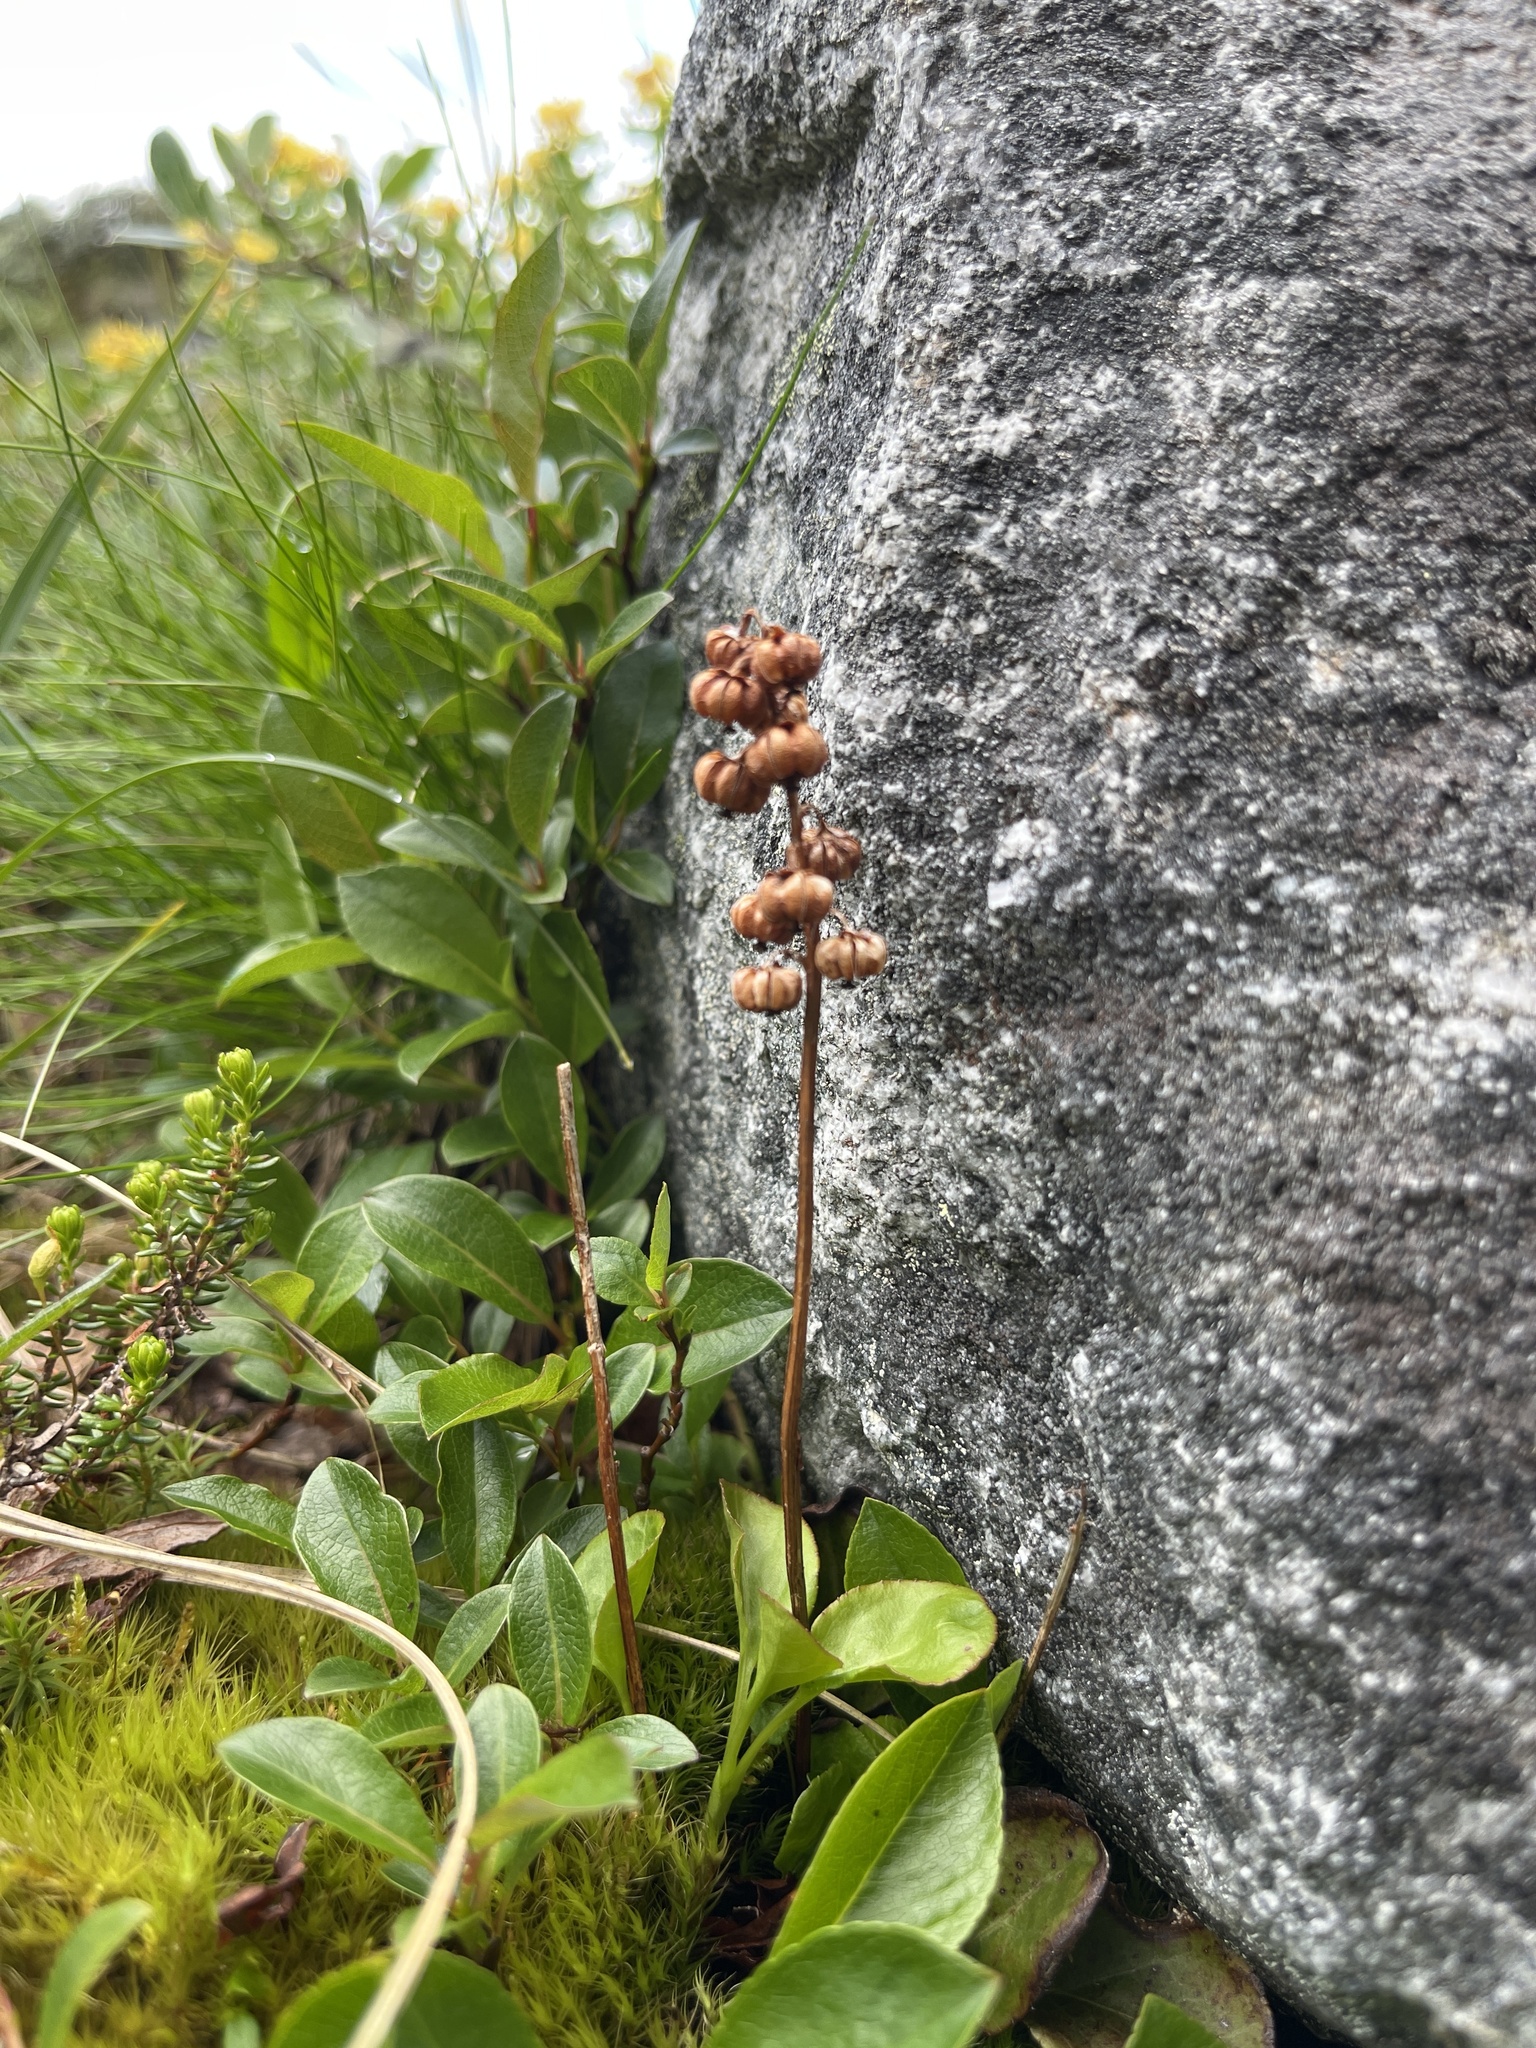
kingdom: Plantae
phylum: Tracheophyta
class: Magnoliopsida
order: Ericales
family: Ericaceae
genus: Pyrola
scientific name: Pyrola minor
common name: Common wintergreen
